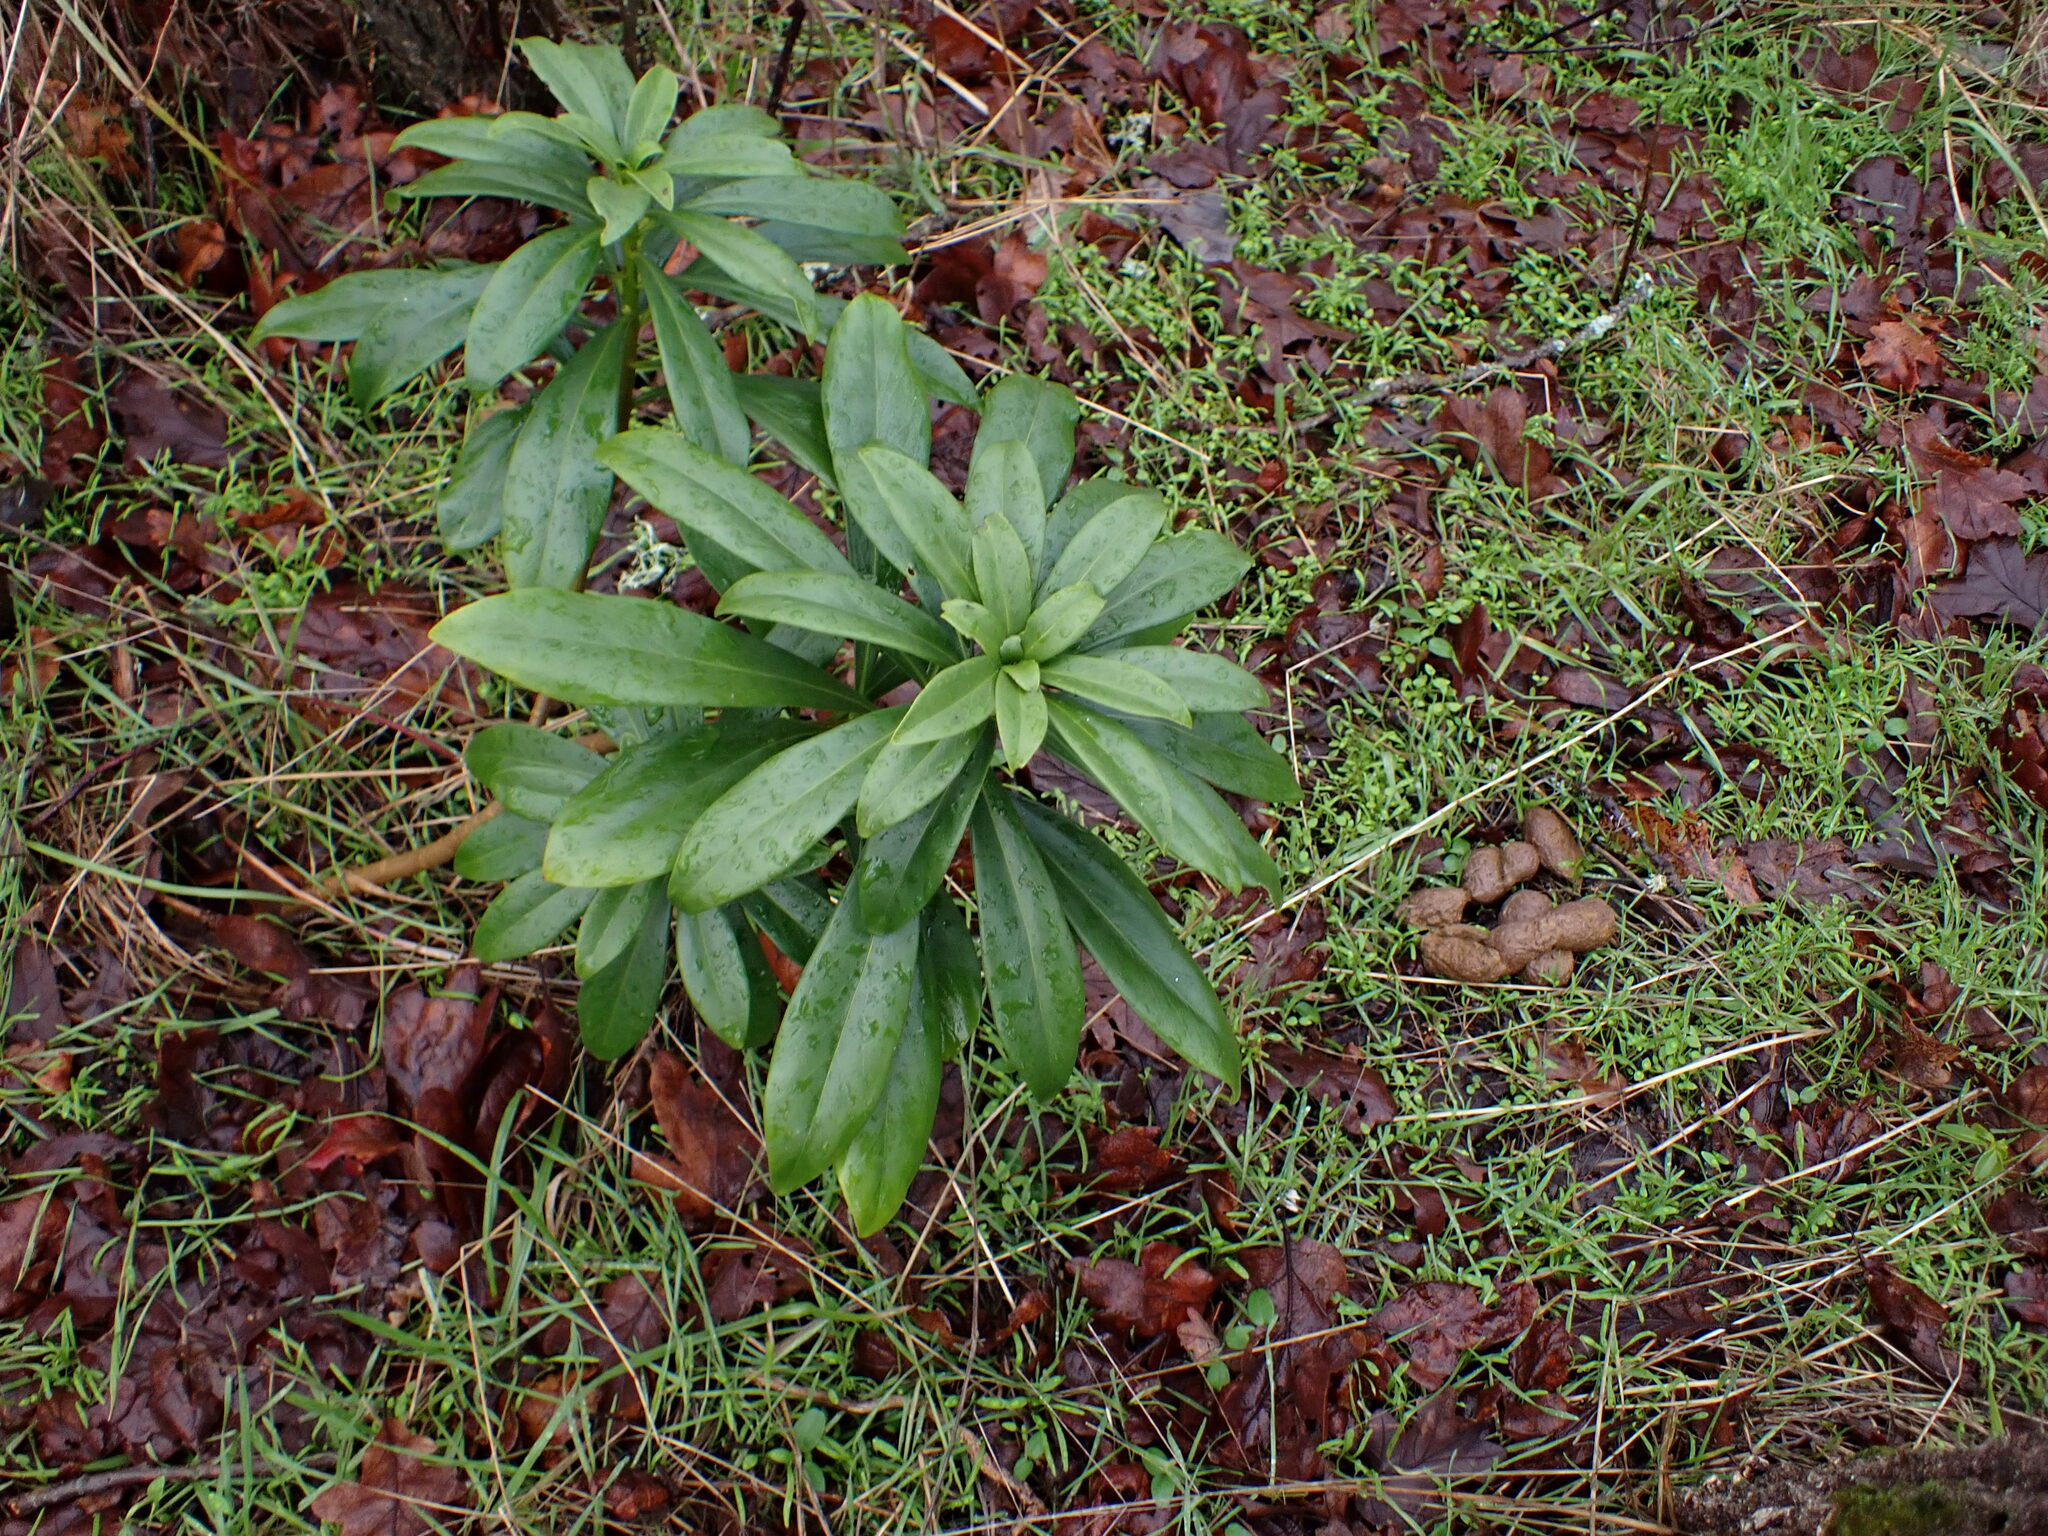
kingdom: Plantae
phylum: Tracheophyta
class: Magnoliopsida
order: Malvales
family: Thymelaeaceae
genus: Daphne
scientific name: Daphne laureola
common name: Spurge-laurel
